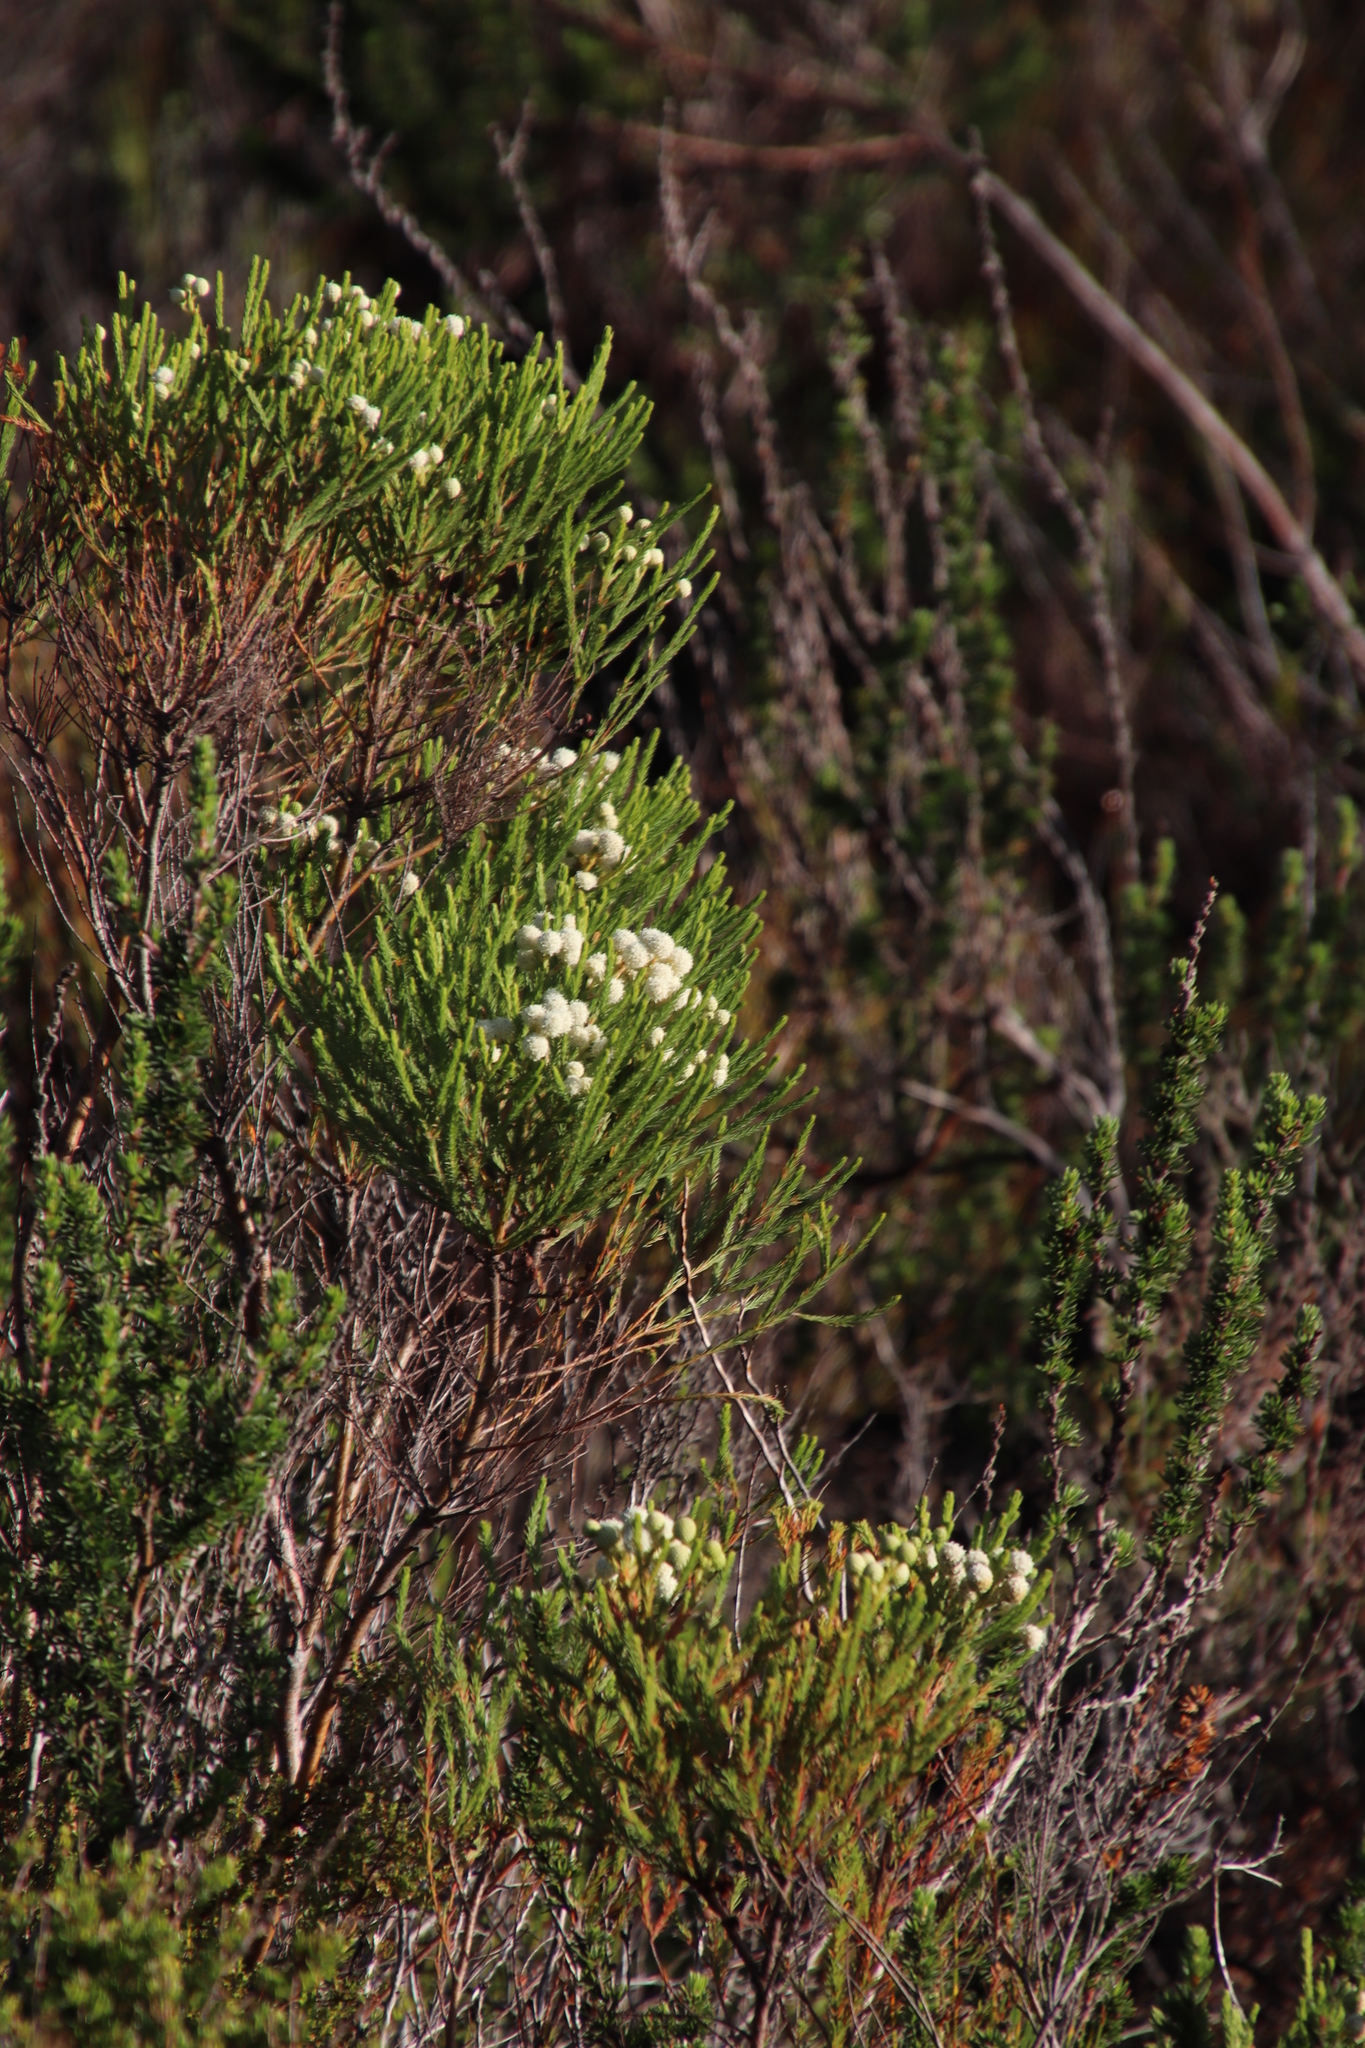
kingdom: Plantae
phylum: Tracheophyta
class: Magnoliopsida
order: Bruniales
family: Bruniaceae
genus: Berzelia
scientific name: Berzelia lanuginosa
